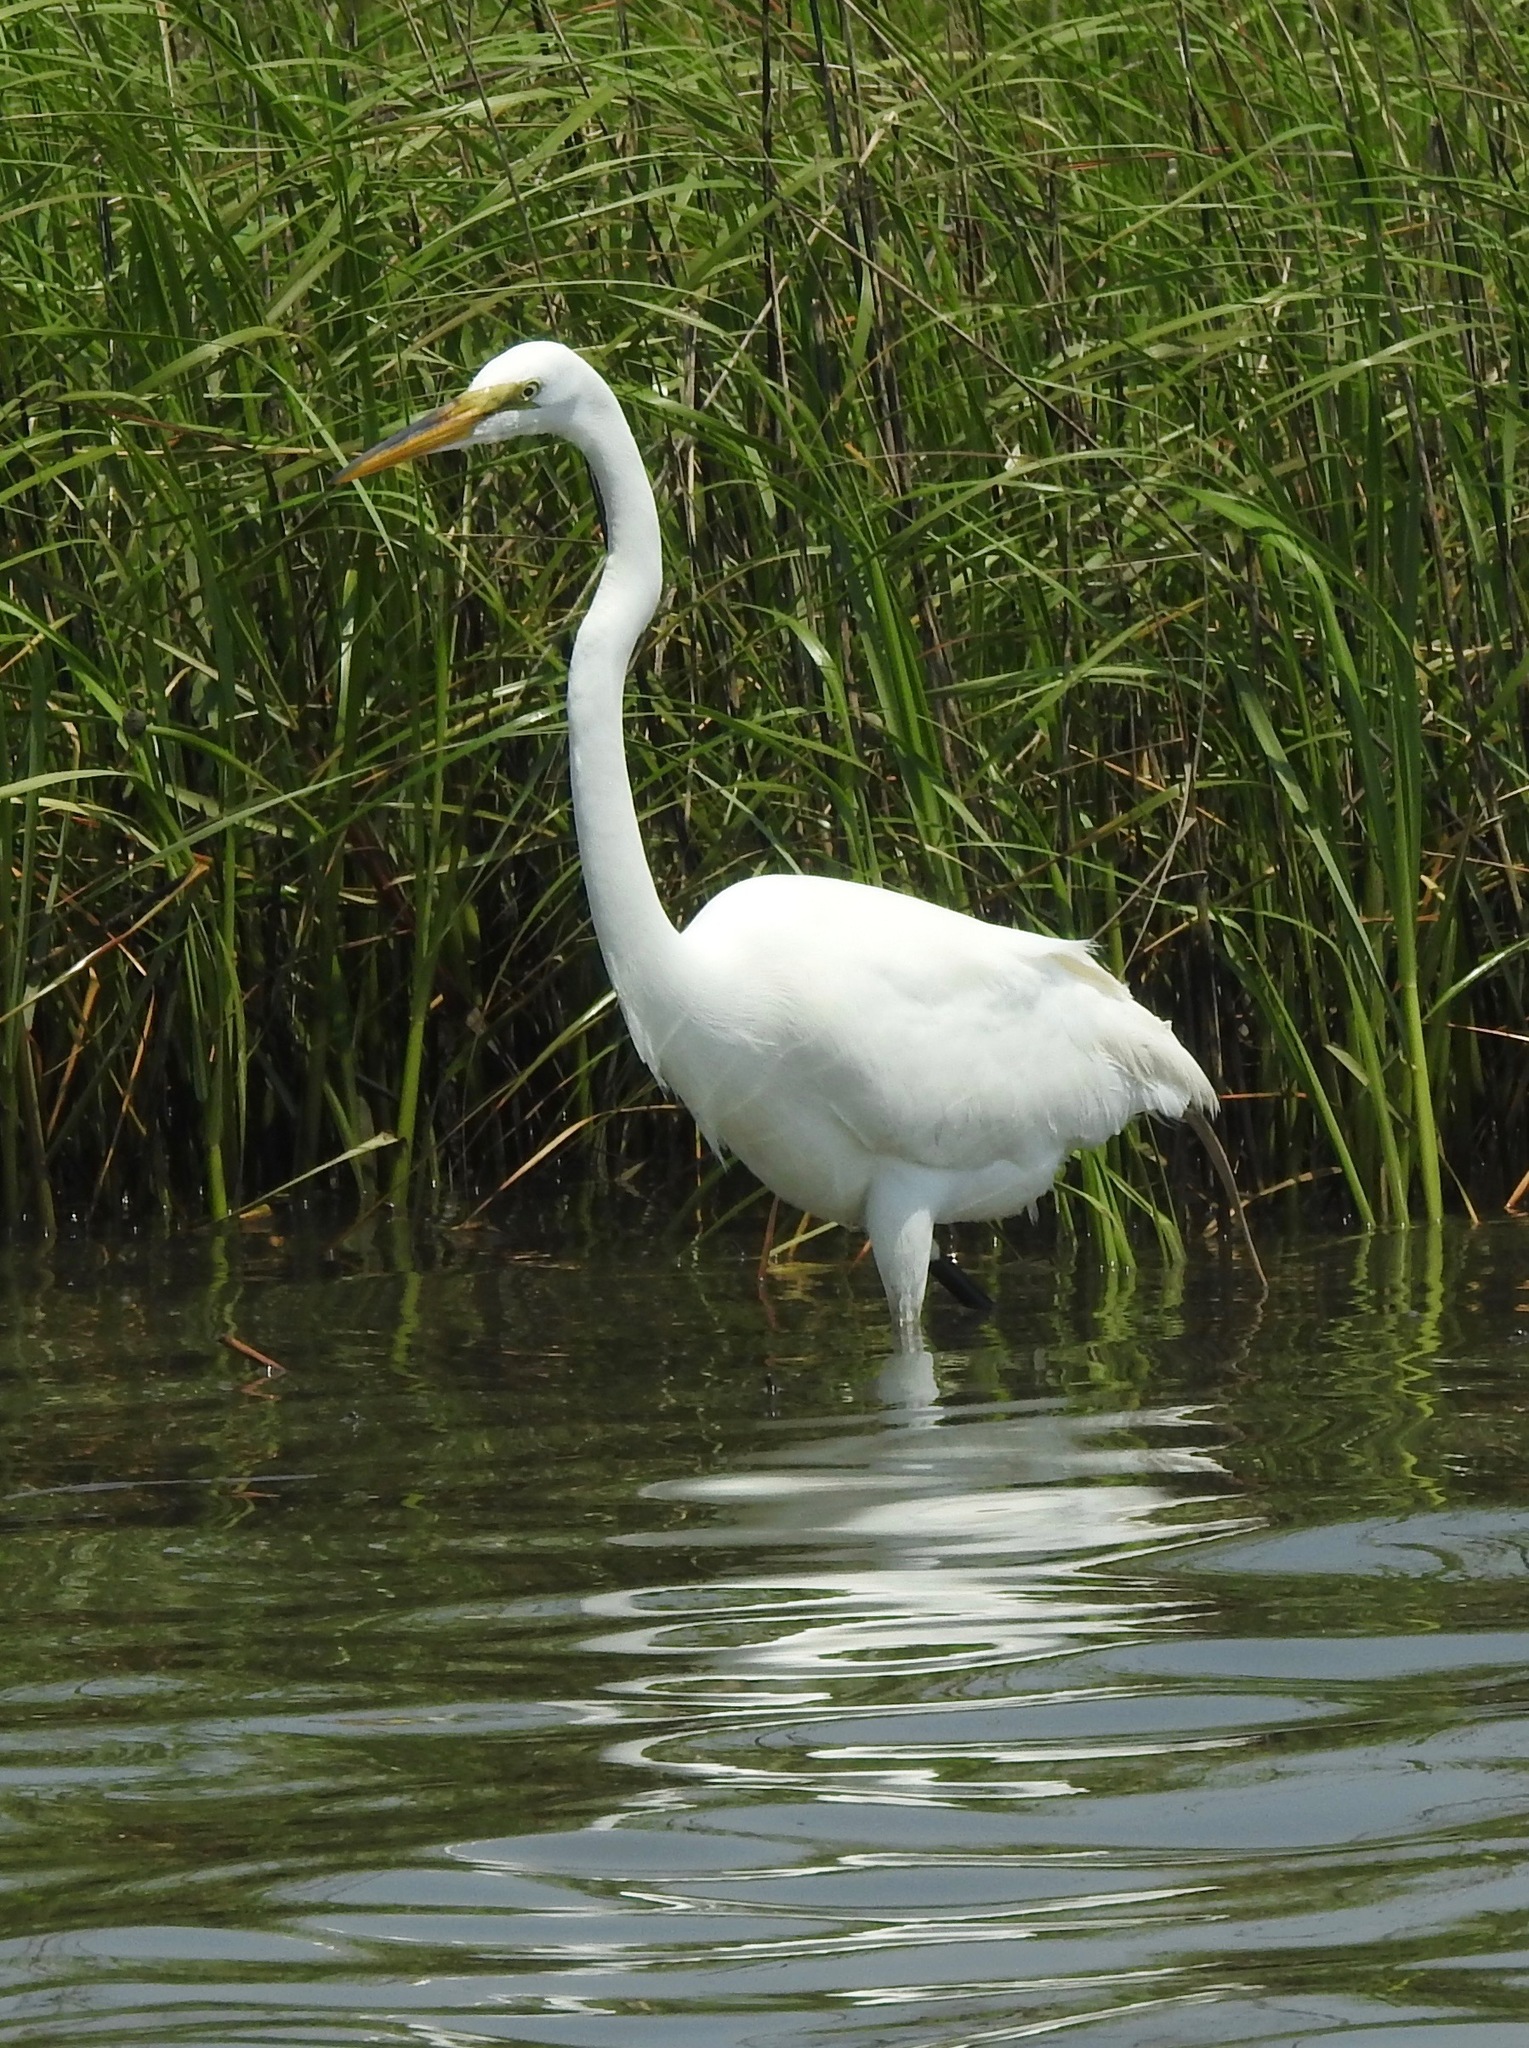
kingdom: Animalia
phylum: Chordata
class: Aves
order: Pelecaniformes
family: Ardeidae
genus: Ardea
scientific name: Ardea alba
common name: Great egret
